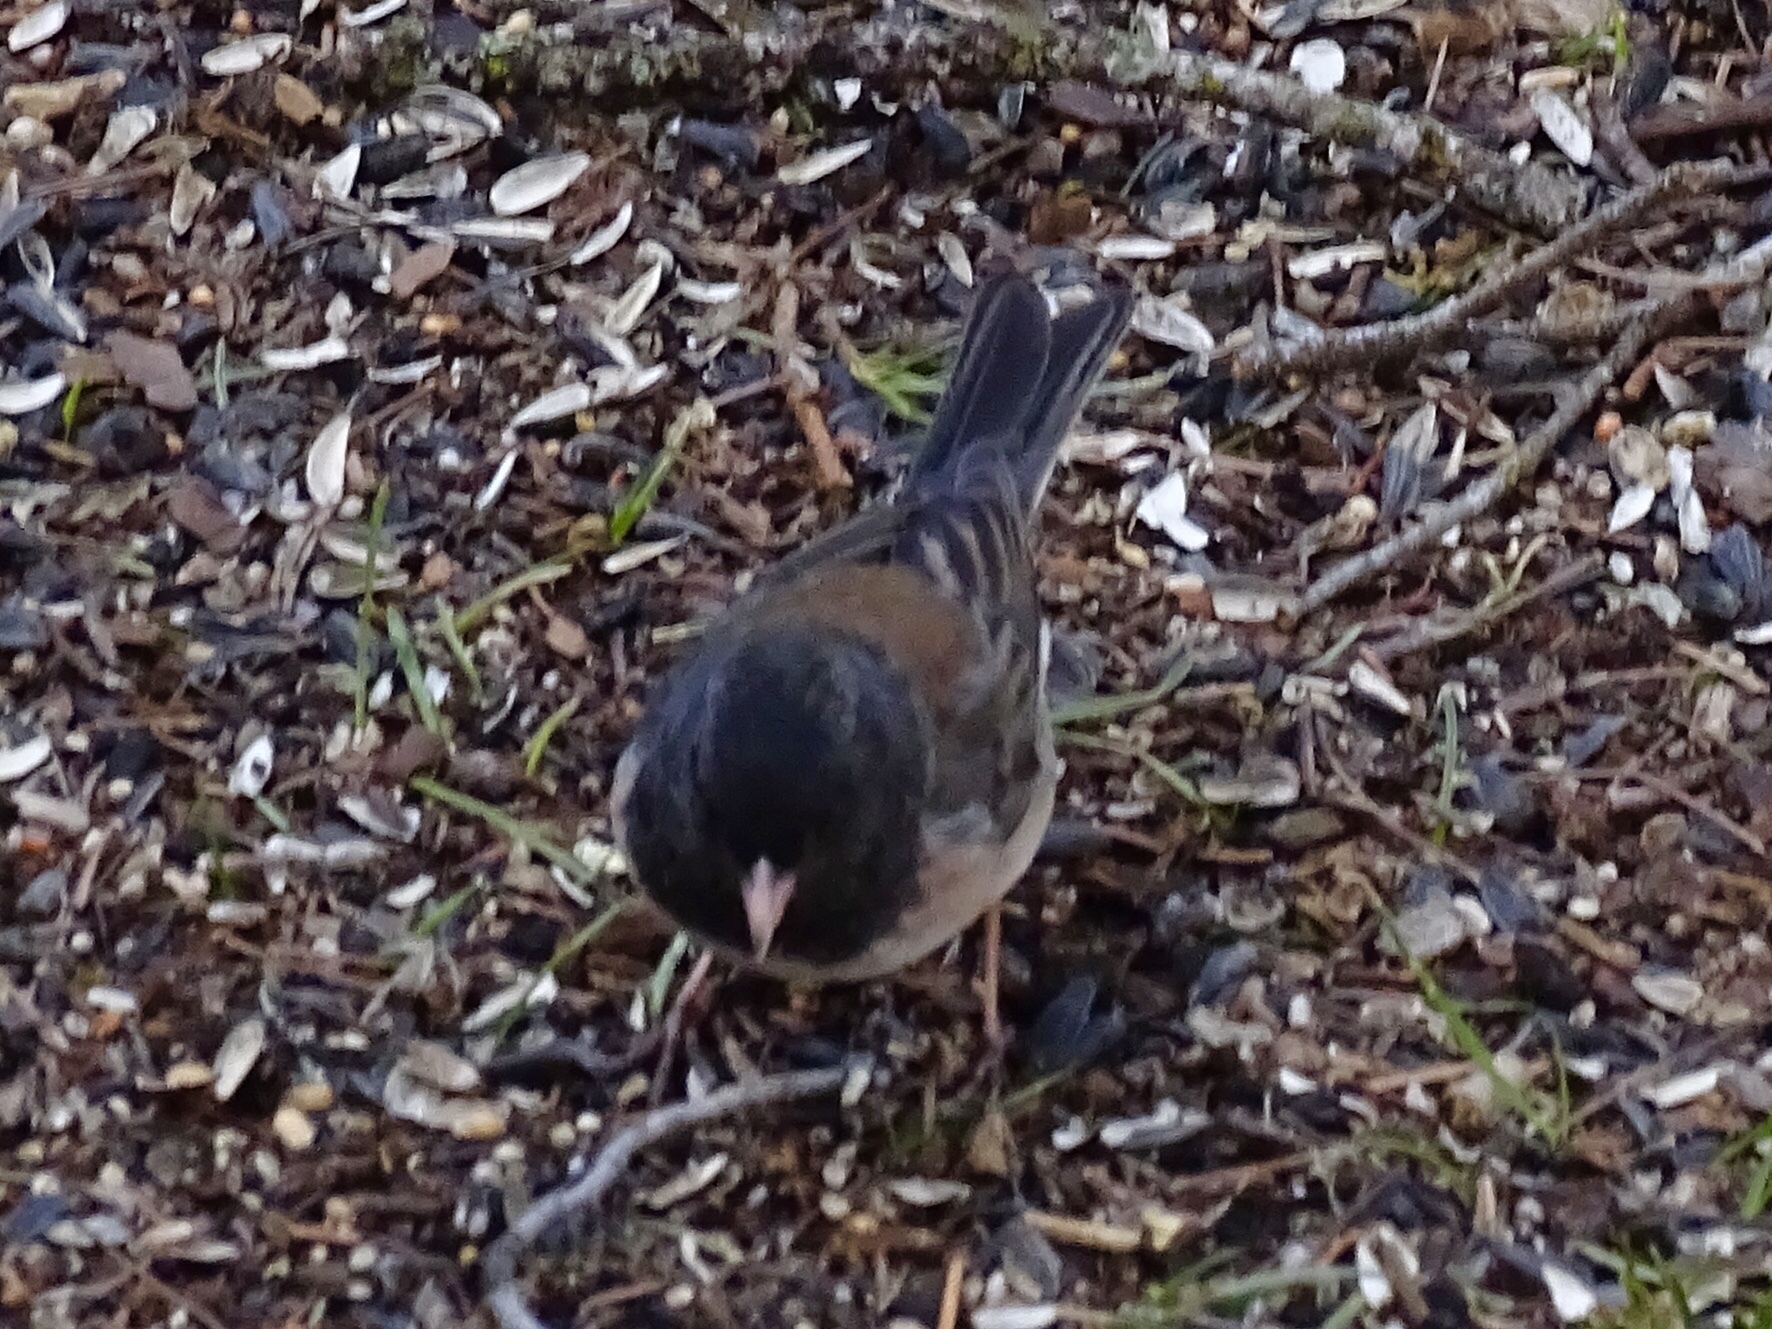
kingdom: Animalia
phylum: Chordata
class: Aves
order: Passeriformes
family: Passerellidae
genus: Junco
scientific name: Junco hyemalis
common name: Dark-eyed junco
